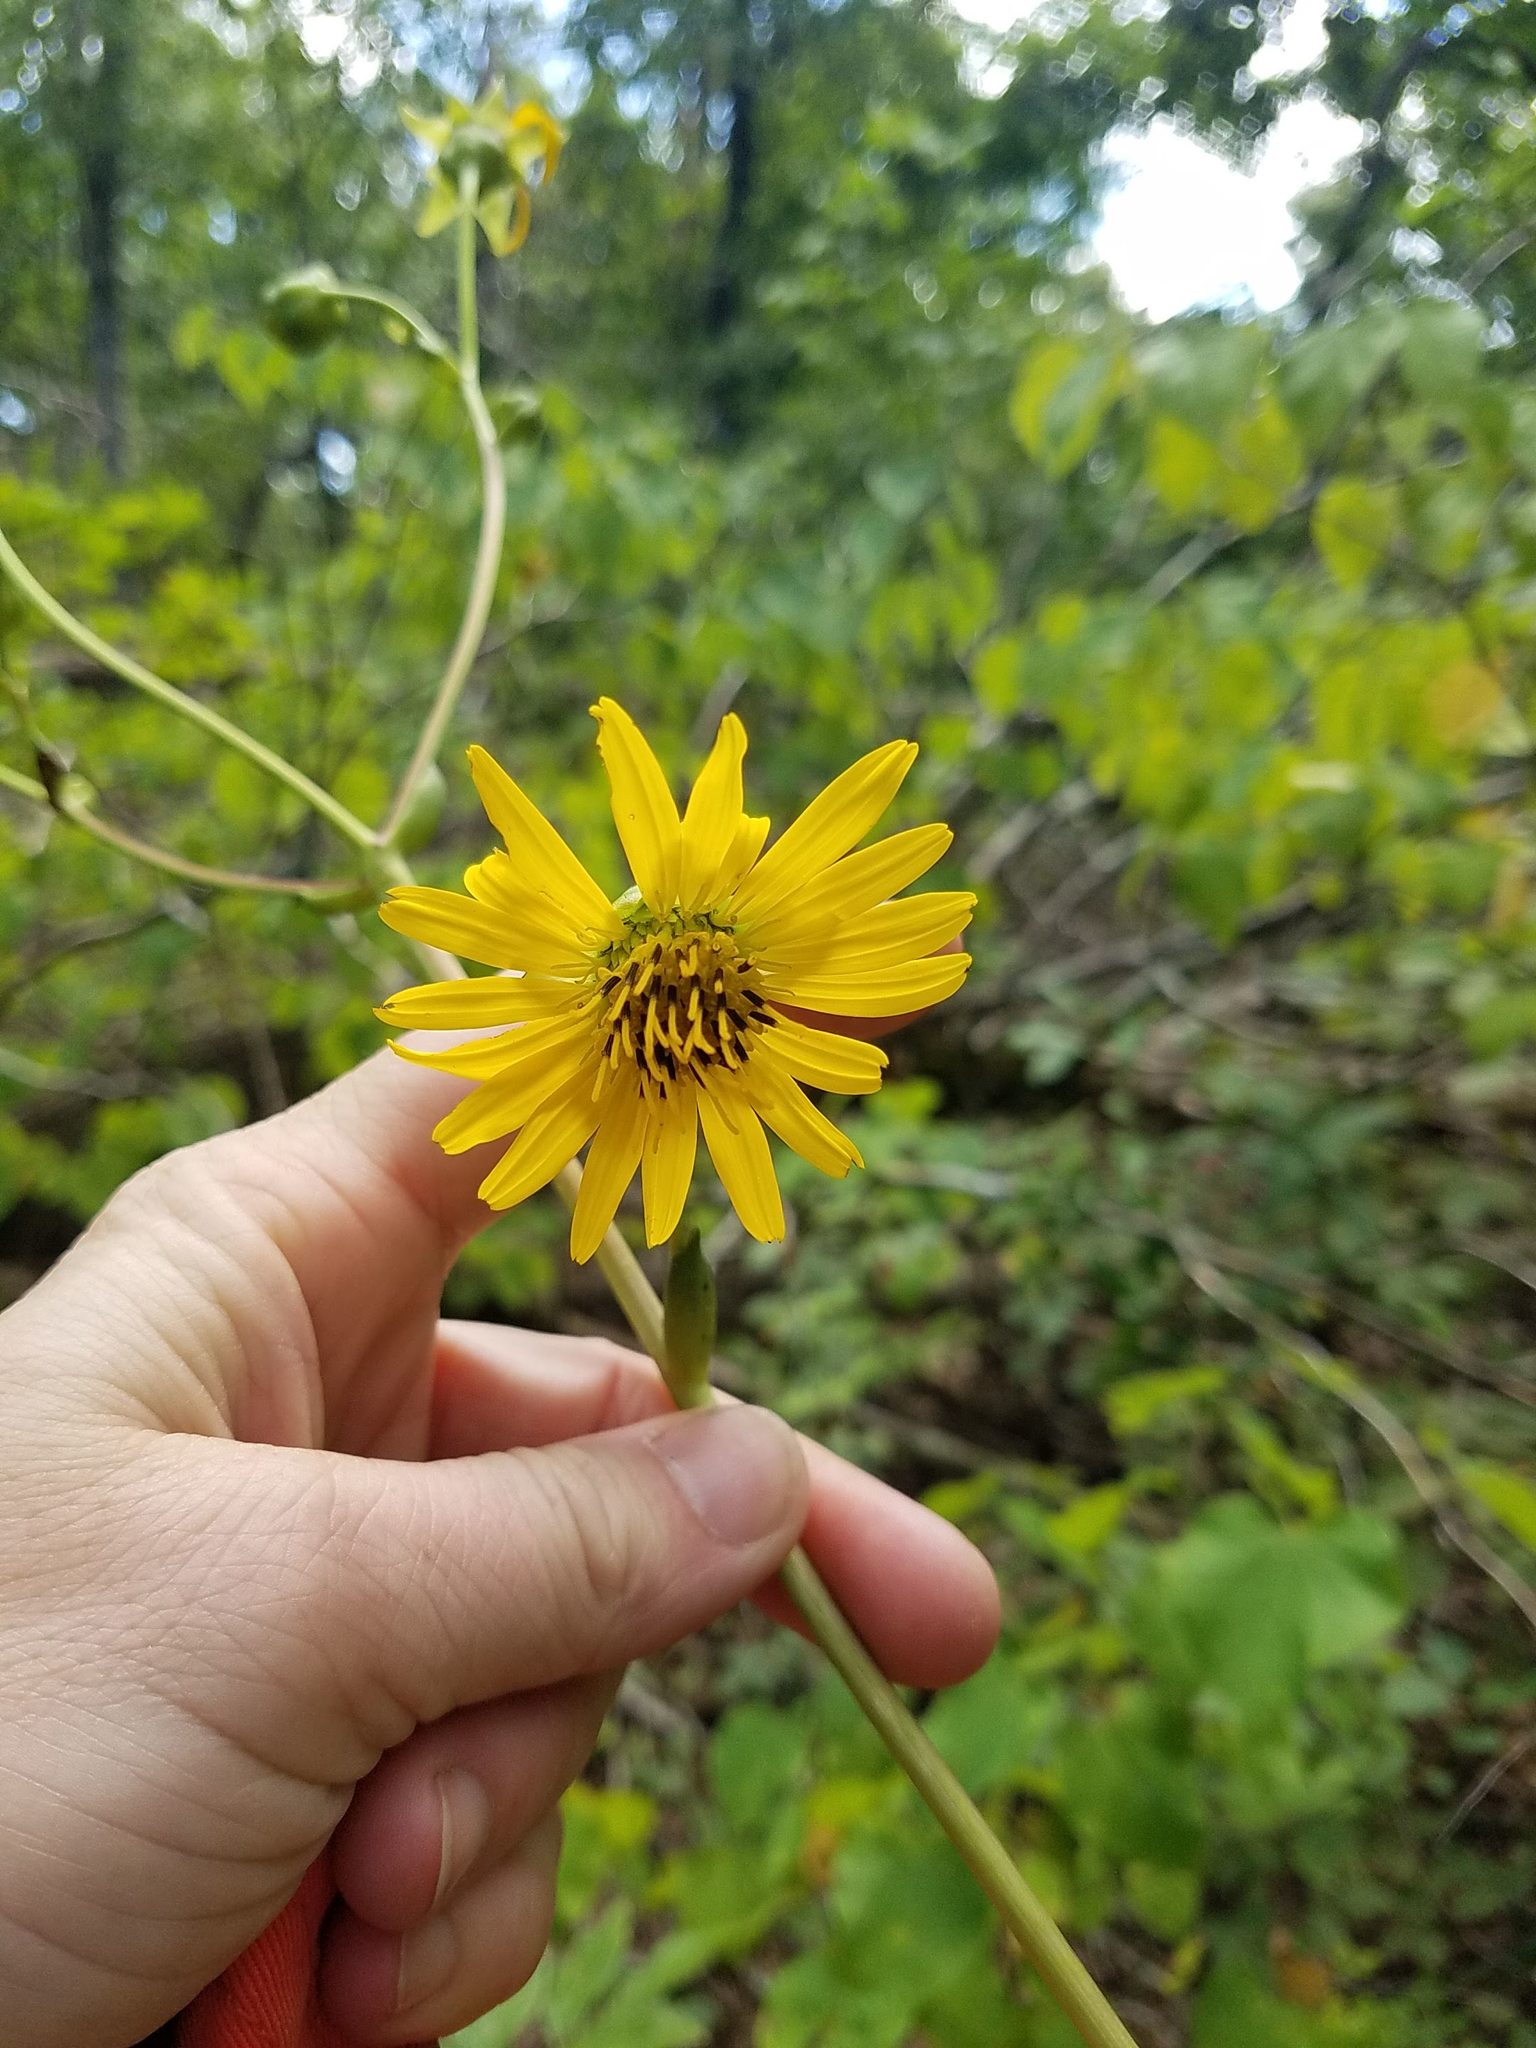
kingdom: Plantae
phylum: Tracheophyta
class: Magnoliopsida
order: Asterales
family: Asteraceae
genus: Silphium
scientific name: Silphium terebinthinaceum
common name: Basal-leaf rosinweed
